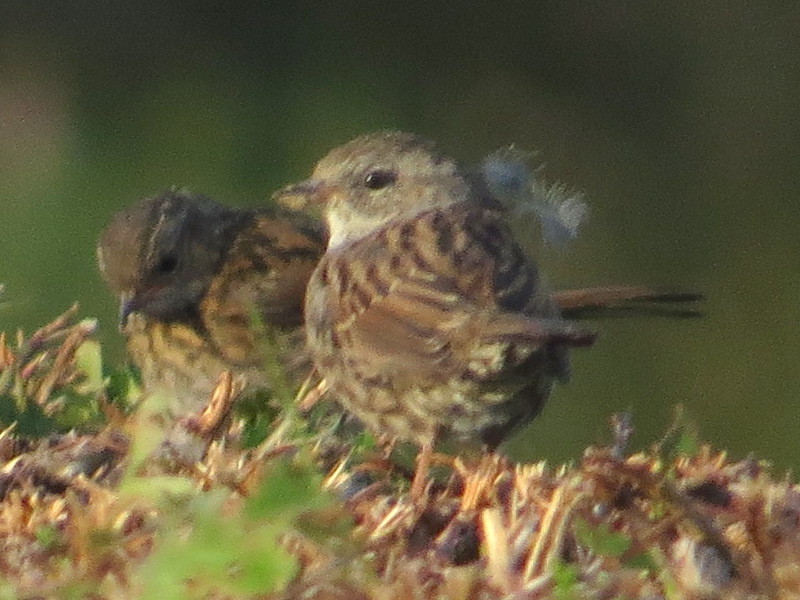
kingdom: Animalia
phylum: Chordata
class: Aves
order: Passeriformes
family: Prunellidae
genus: Prunella
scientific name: Prunella modularis
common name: Dunnock
